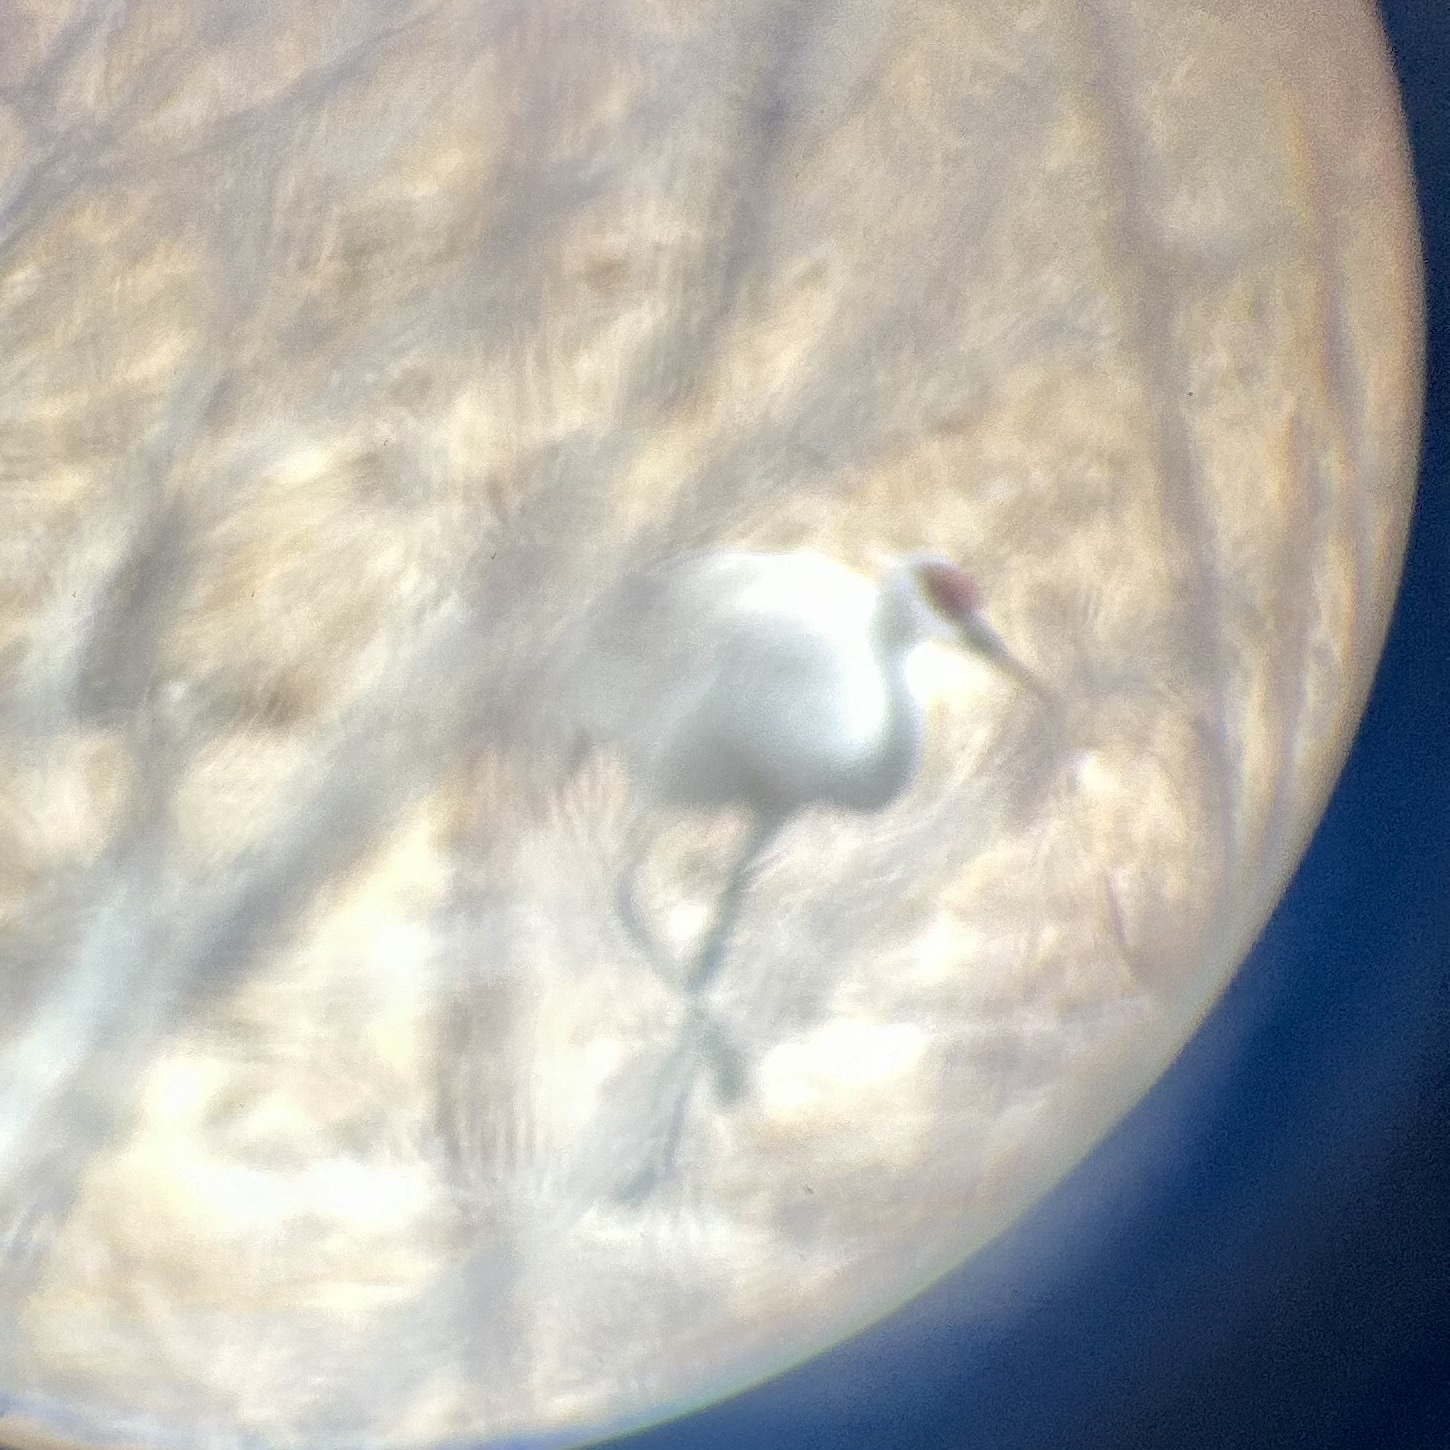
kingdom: Animalia
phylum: Chordata
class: Aves
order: Gruiformes
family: Gruidae
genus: Grus
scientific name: Grus canadensis
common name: Sandhill crane
